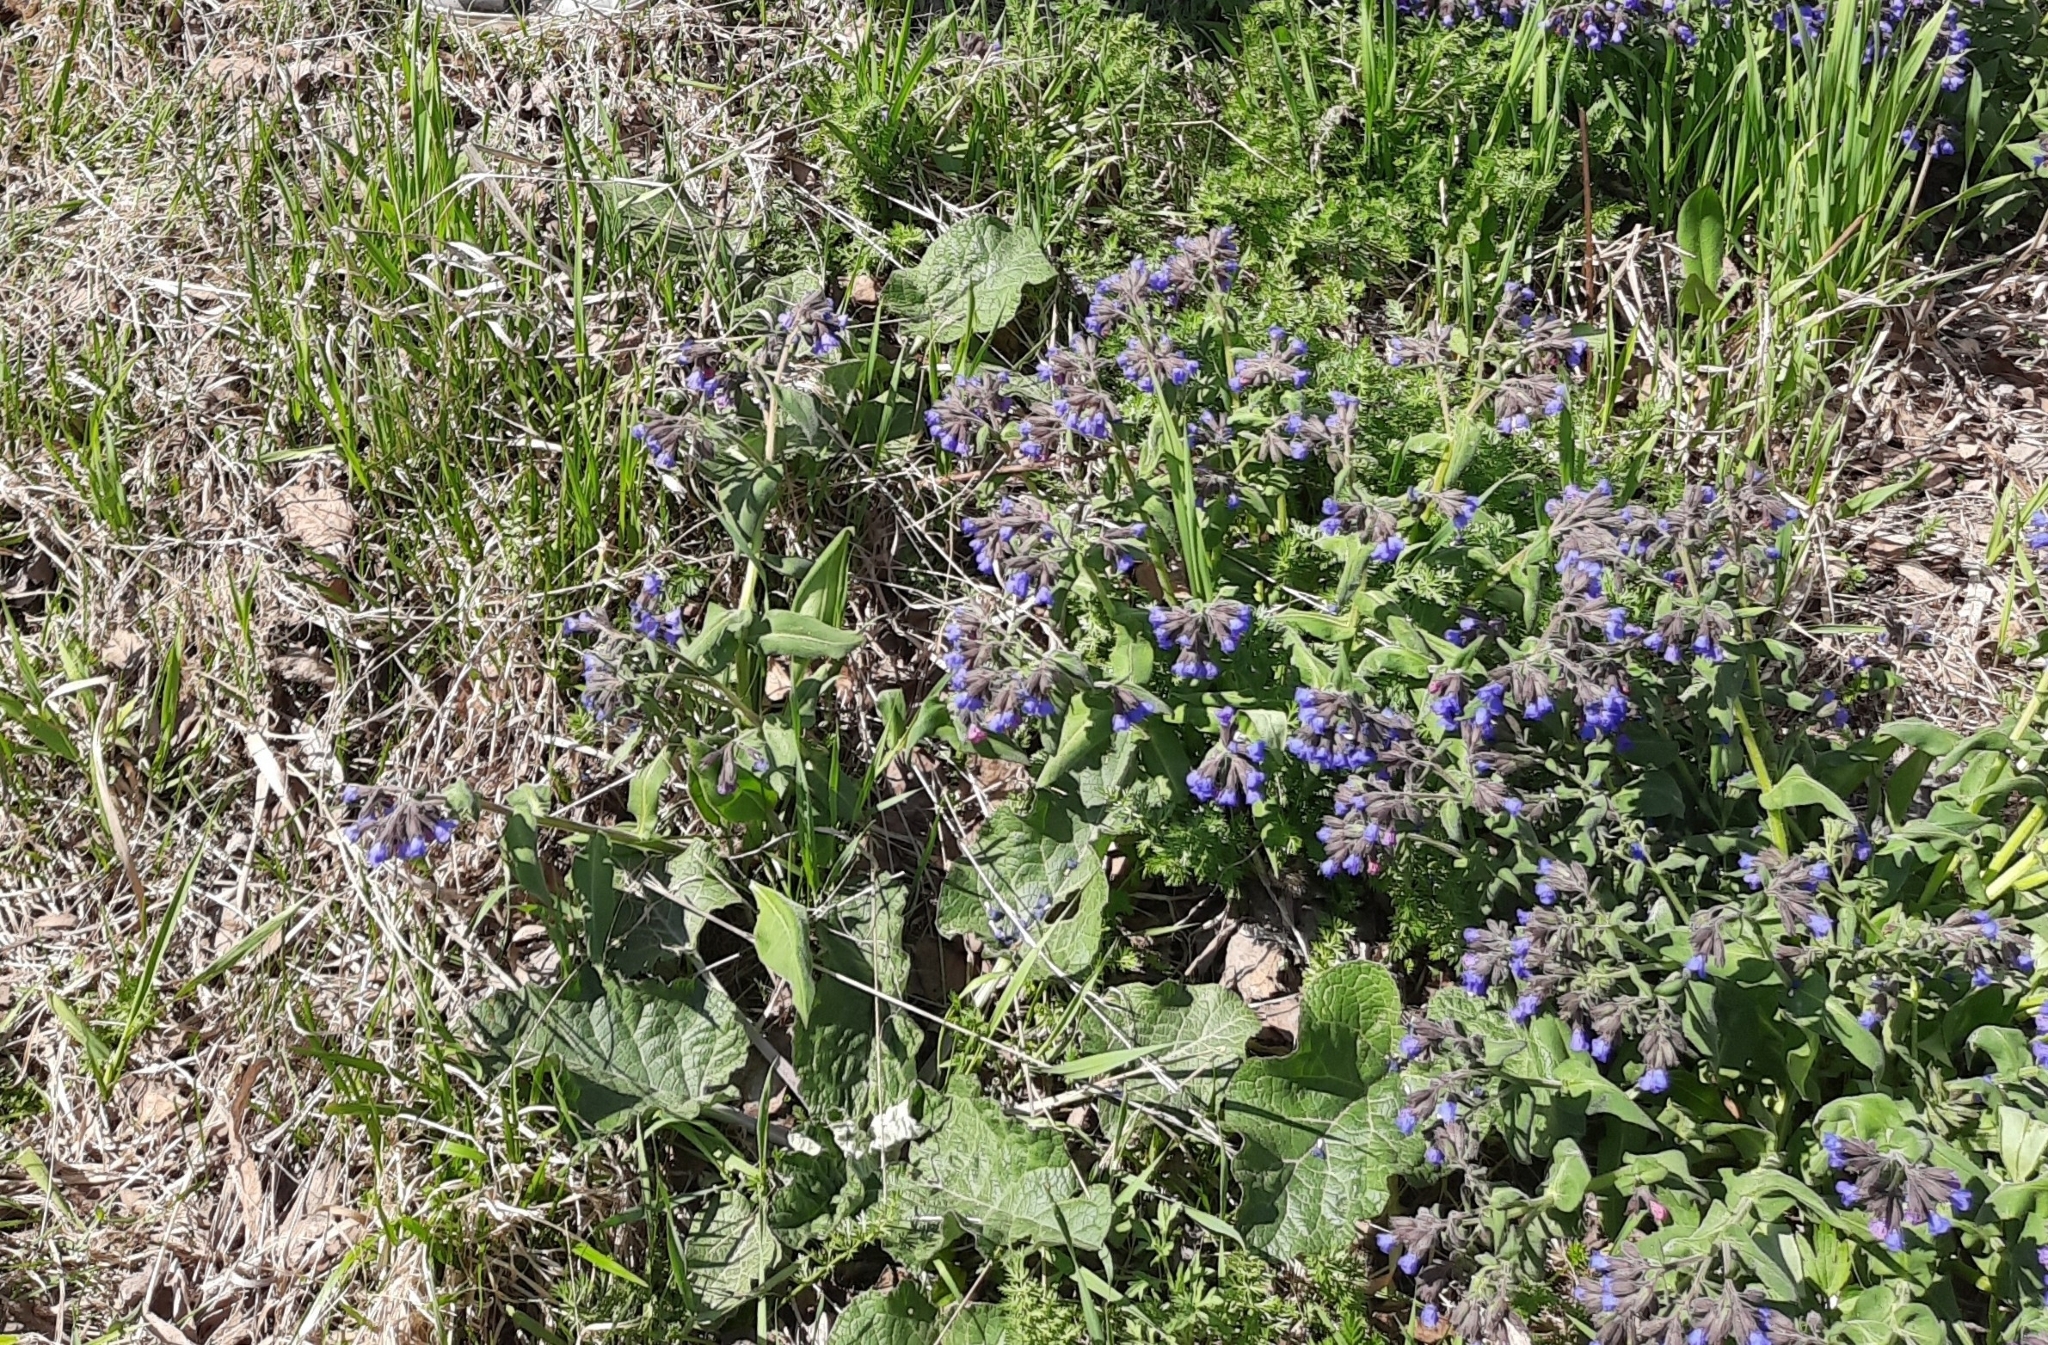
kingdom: Plantae
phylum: Tracheophyta
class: Magnoliopsida
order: Boraginales
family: Boraginaceae
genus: Pulmonaria
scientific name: Pulmonaria mollis
